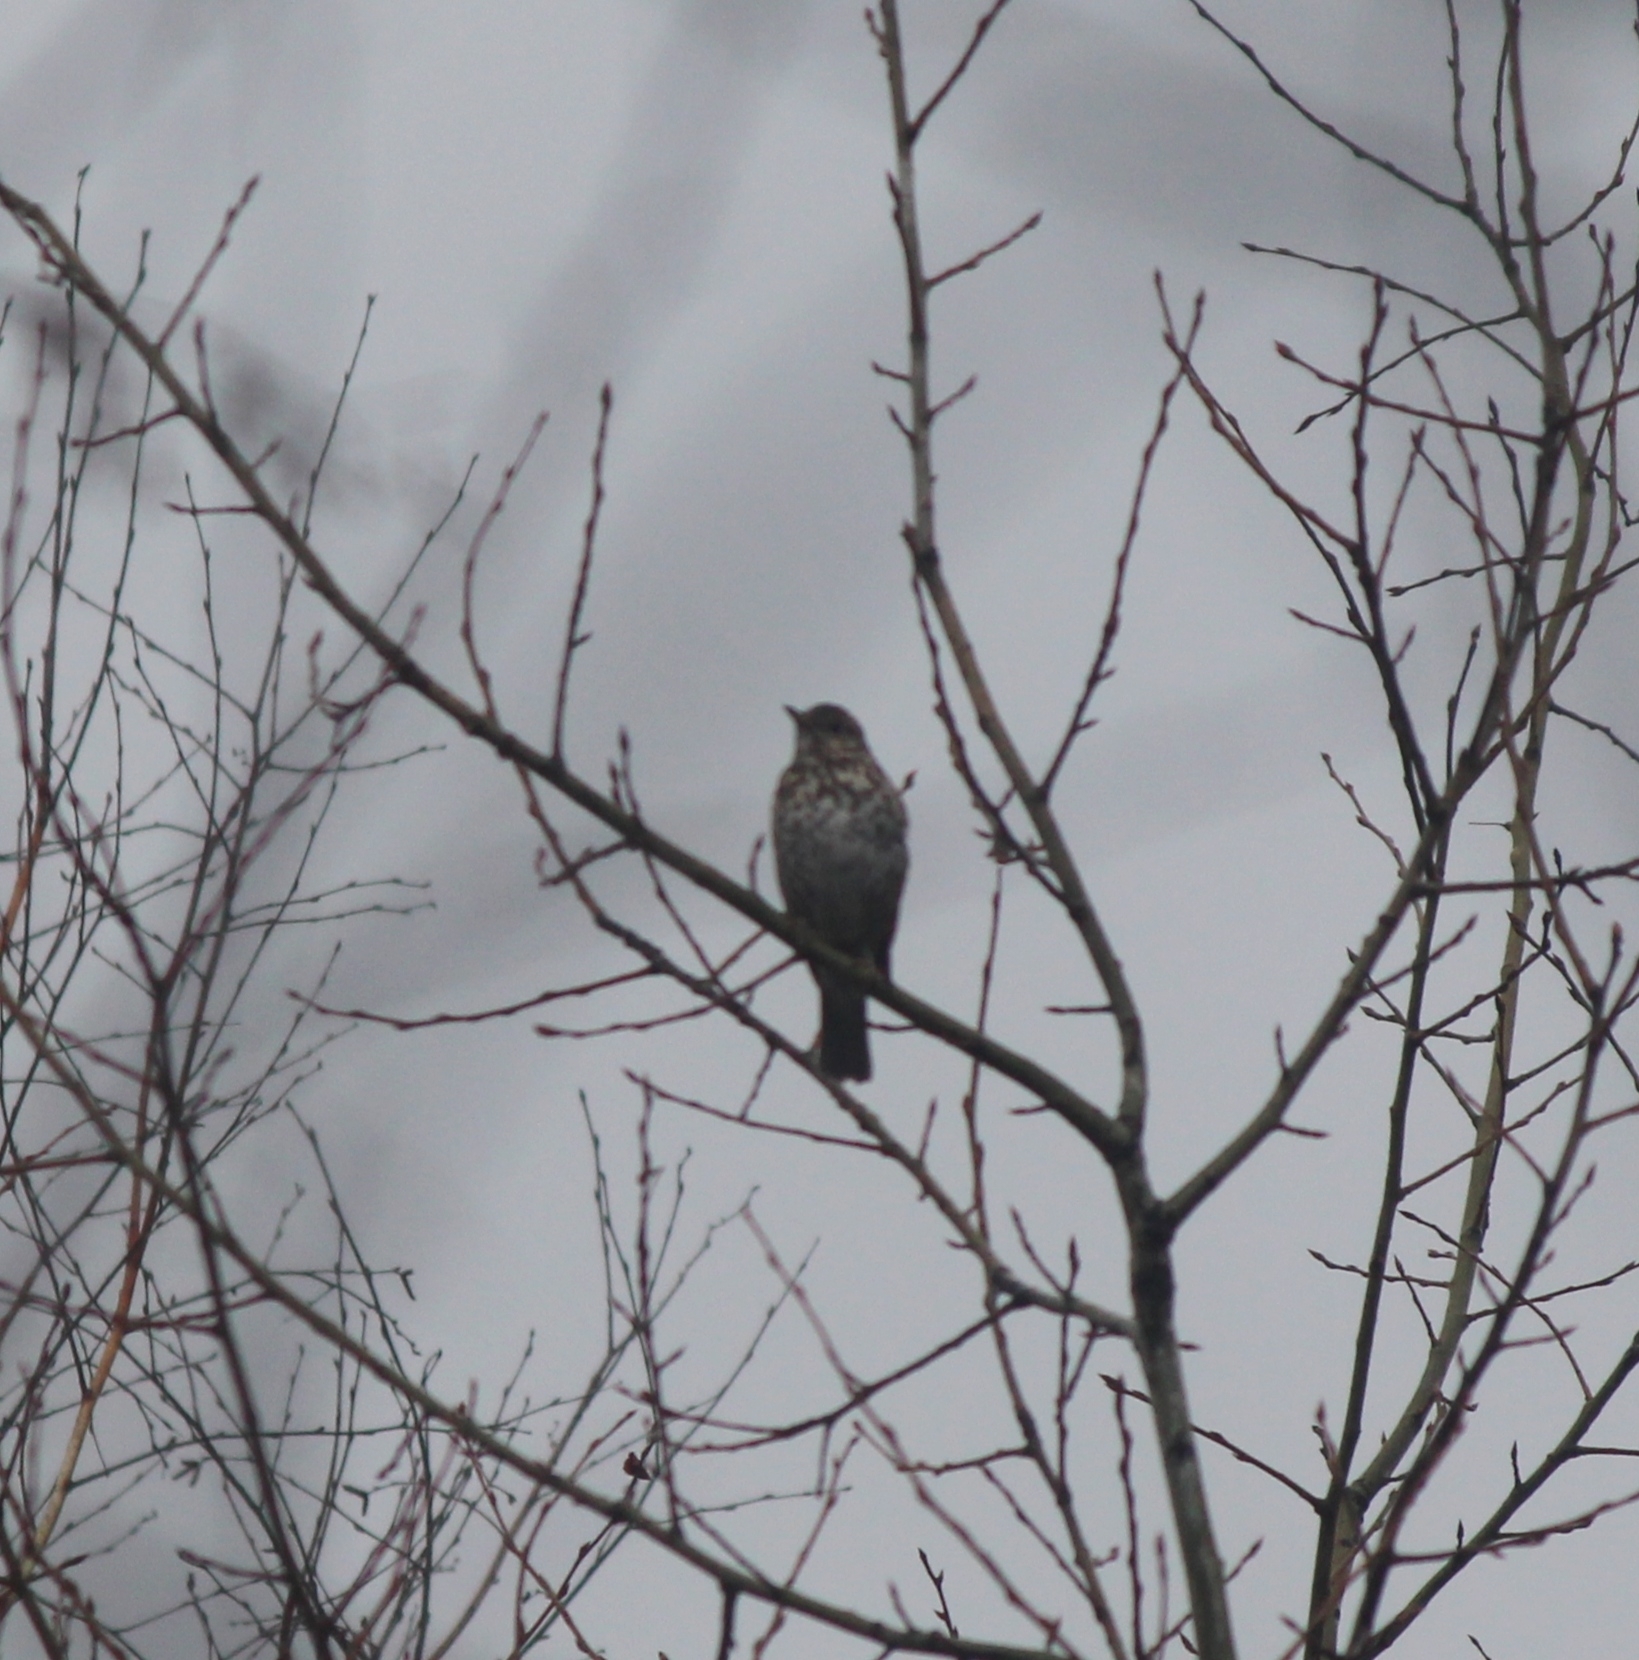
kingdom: Animalia
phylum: Chordata
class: Aves
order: Passeriformes
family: Turdidae
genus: Turdus
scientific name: Turdus philomelos
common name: Song thrush
